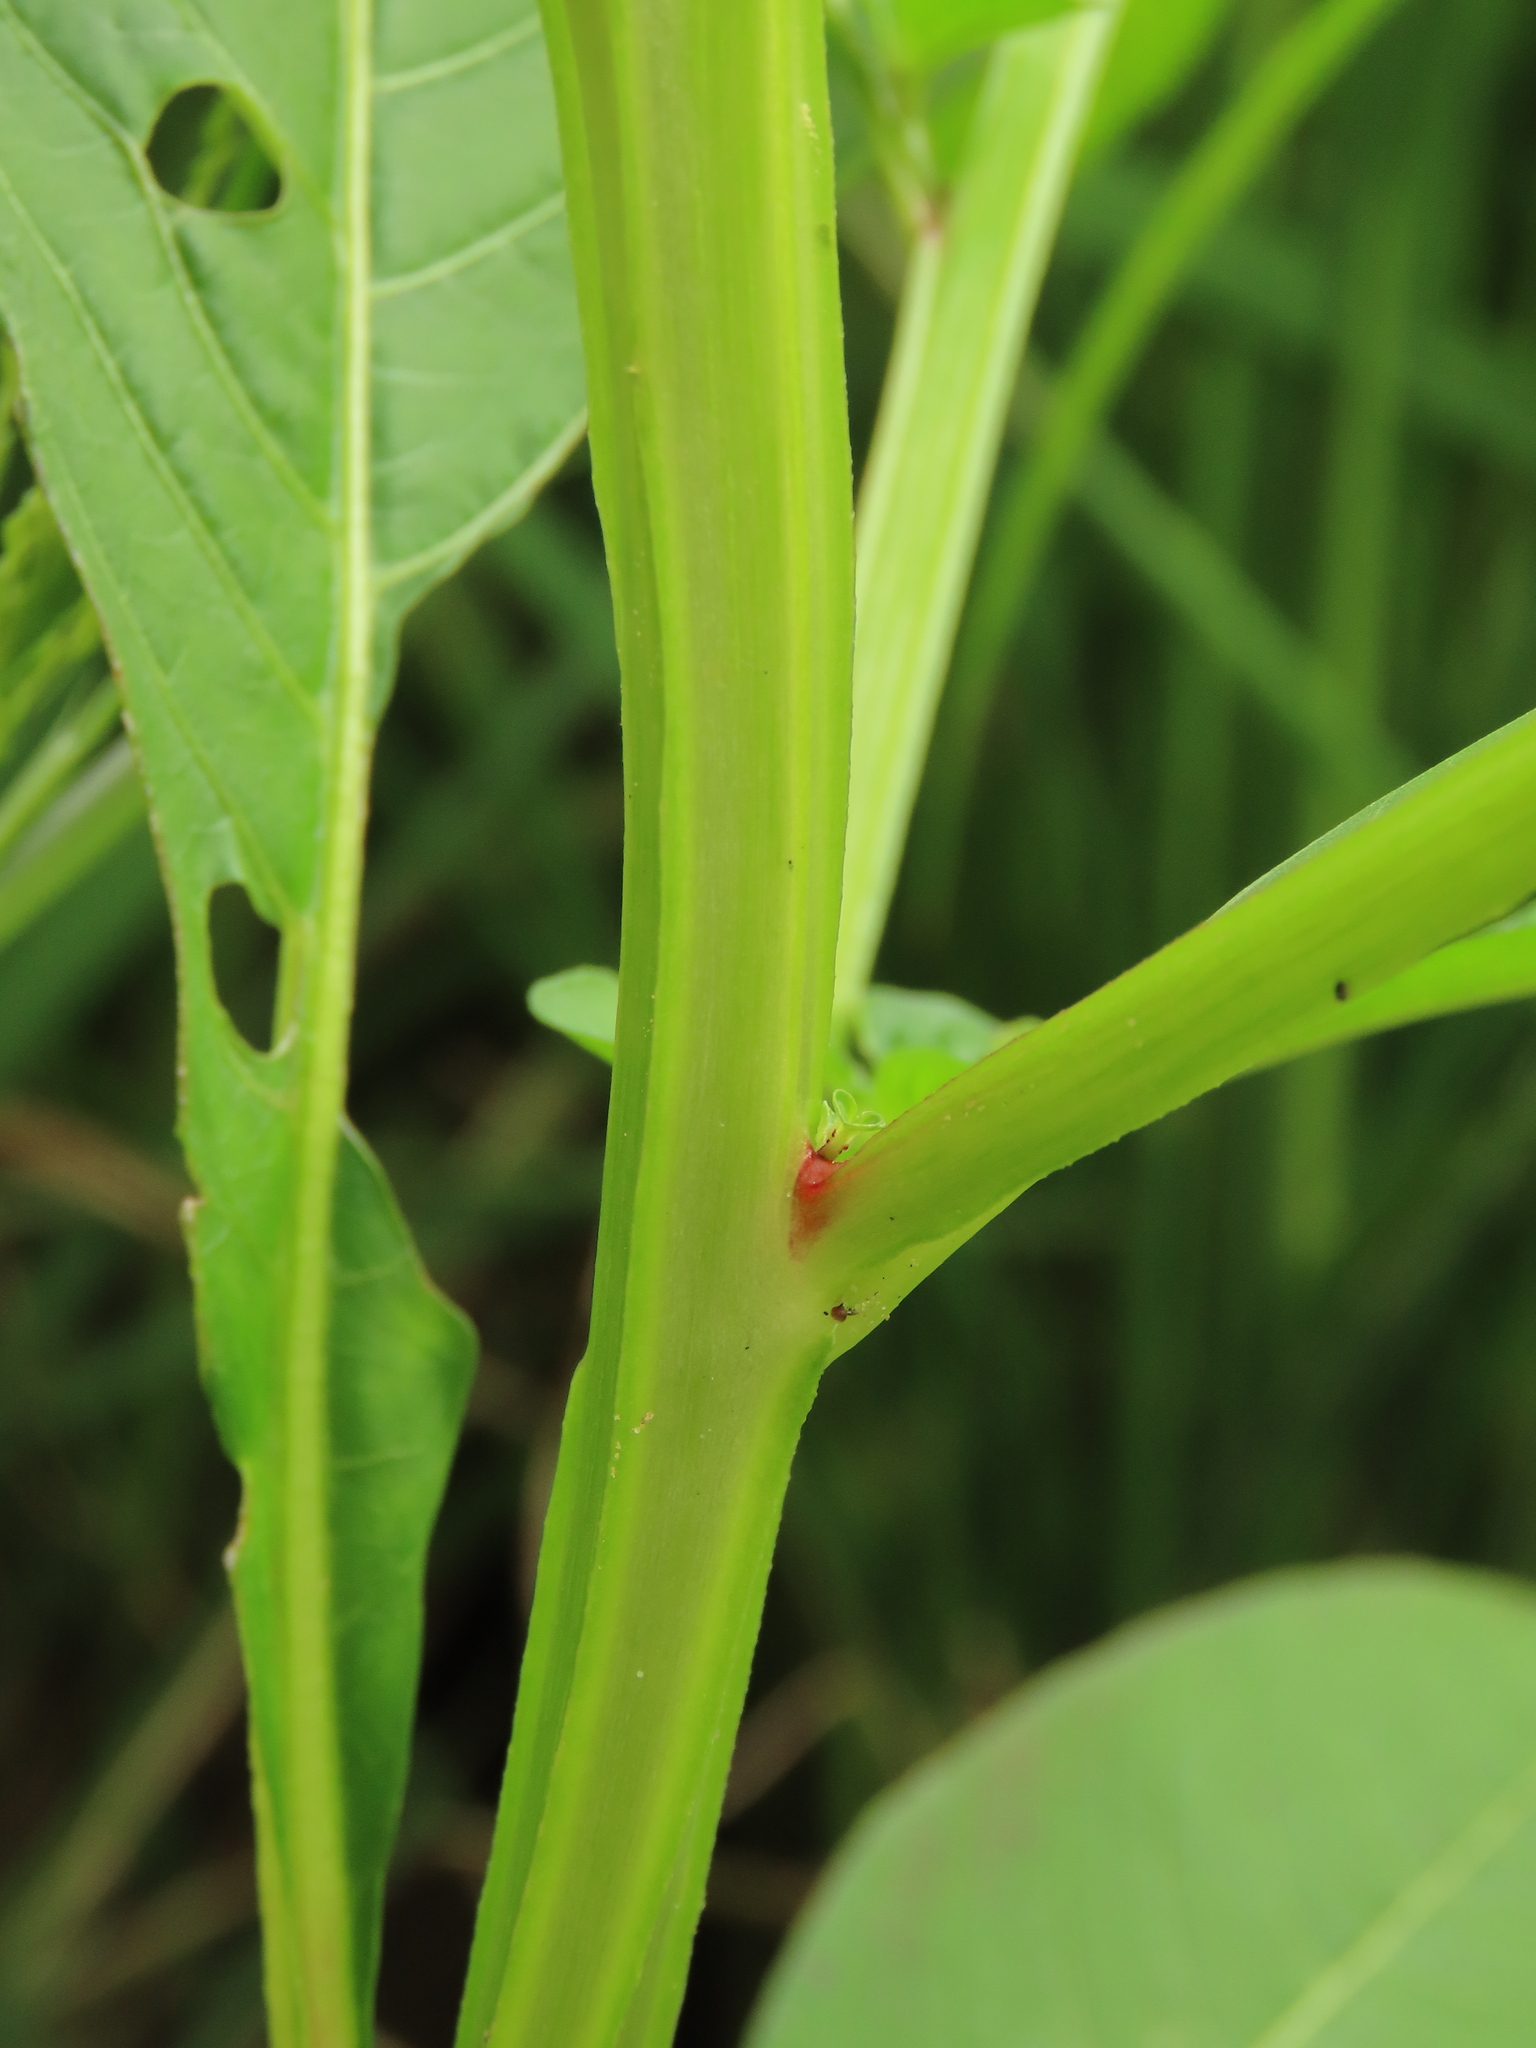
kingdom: Plantae
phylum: Tracheophyta
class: Magnoliopsida
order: Myrtales
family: Onagraceae
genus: Ludwigia
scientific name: Ludwigia
